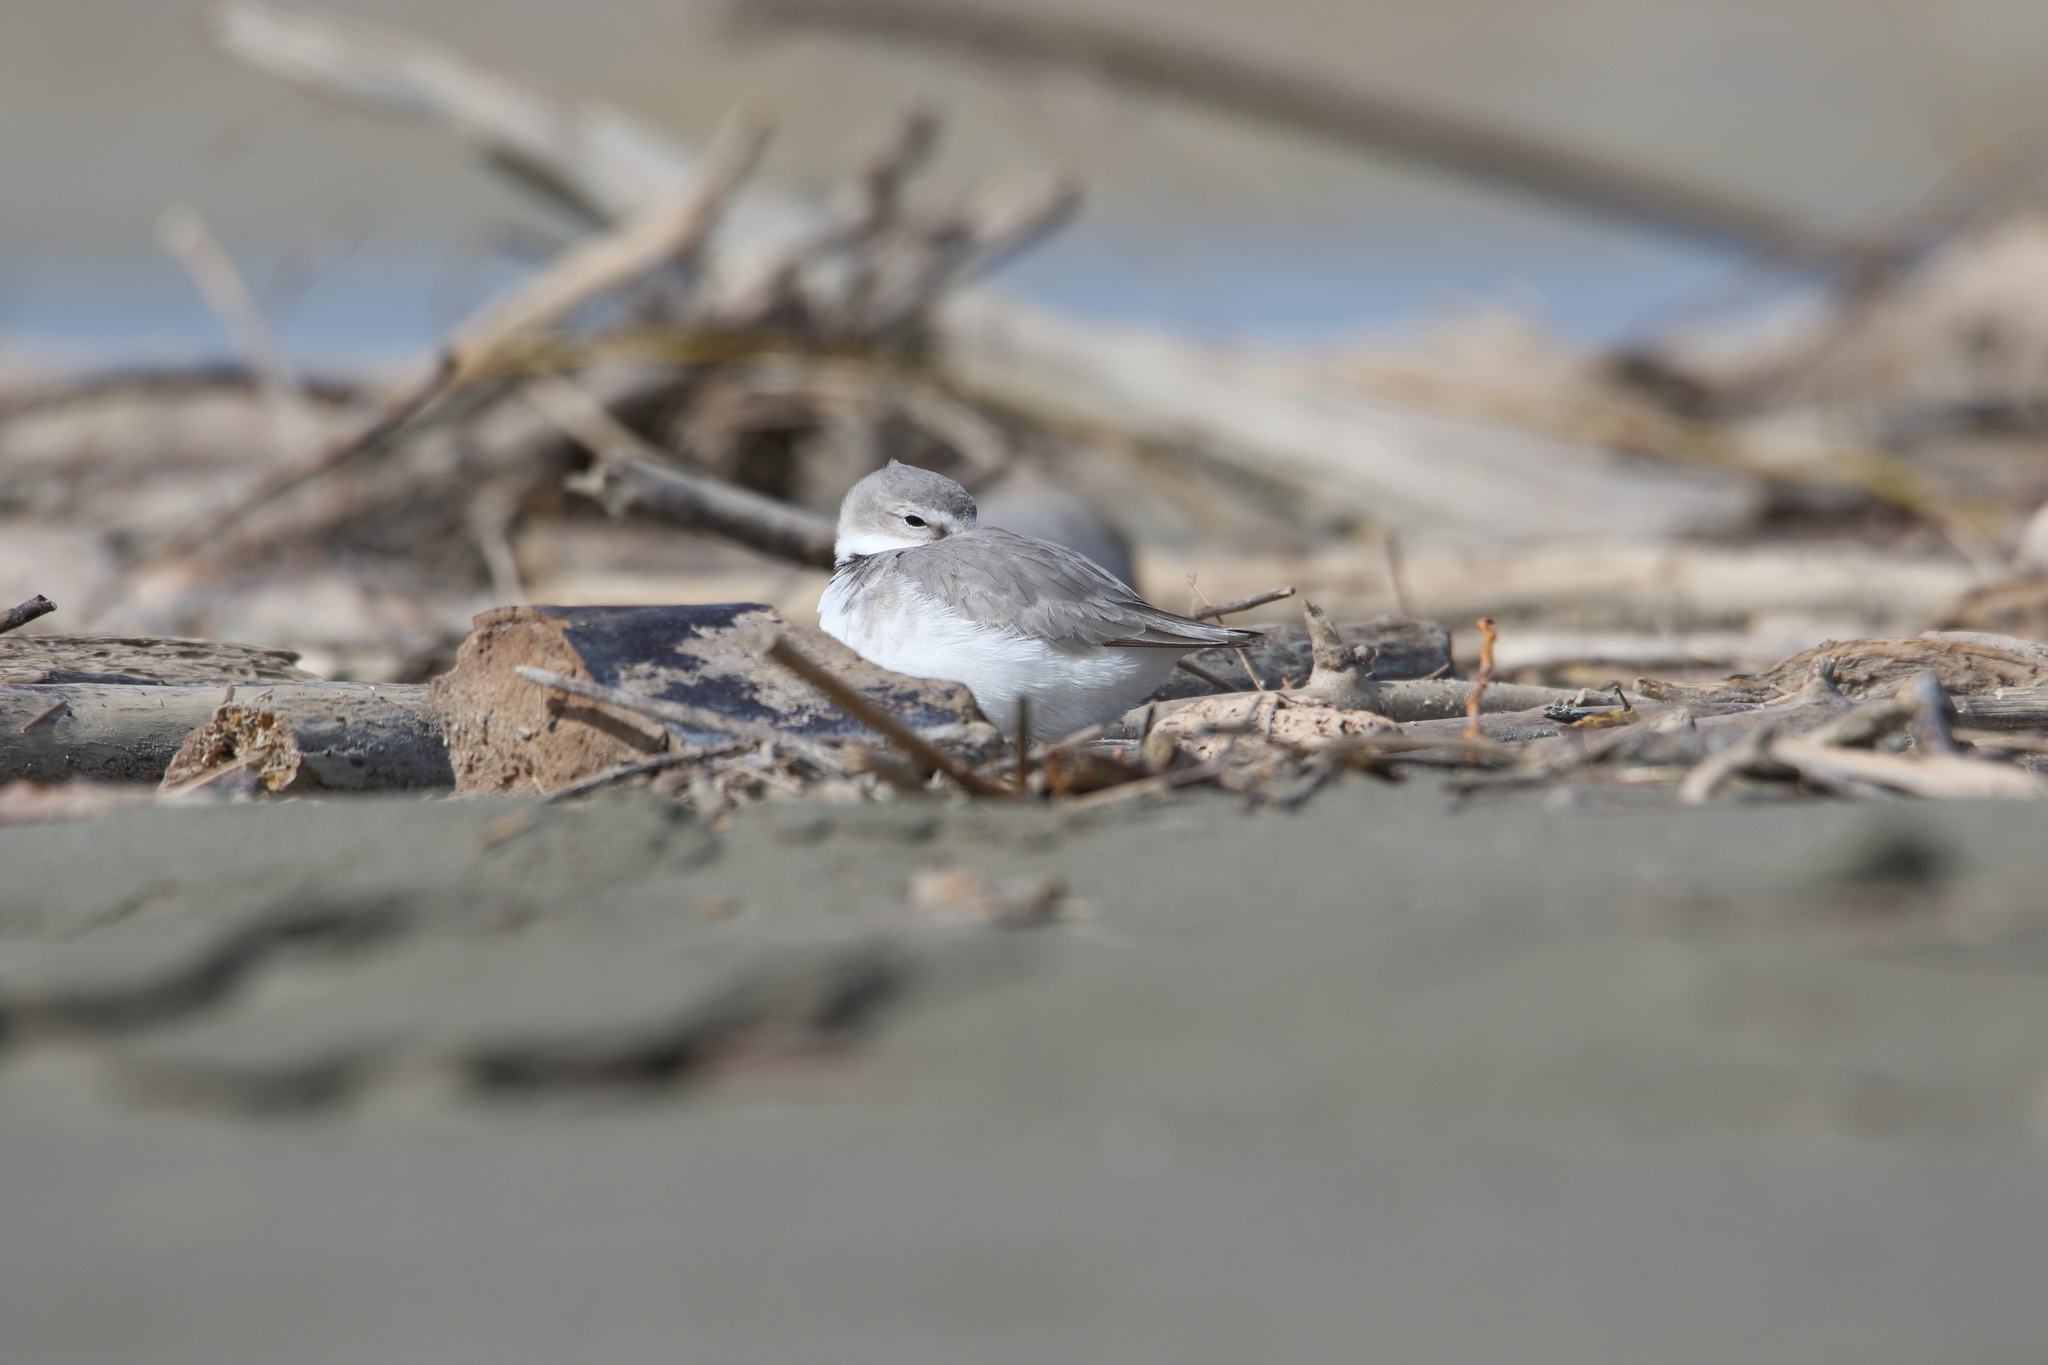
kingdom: Animalia
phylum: Chordata
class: Aves
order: Charadriiformes
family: Charadriidae
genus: Anarhynchus
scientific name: Anarhynchus frontalis
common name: Wrybill
